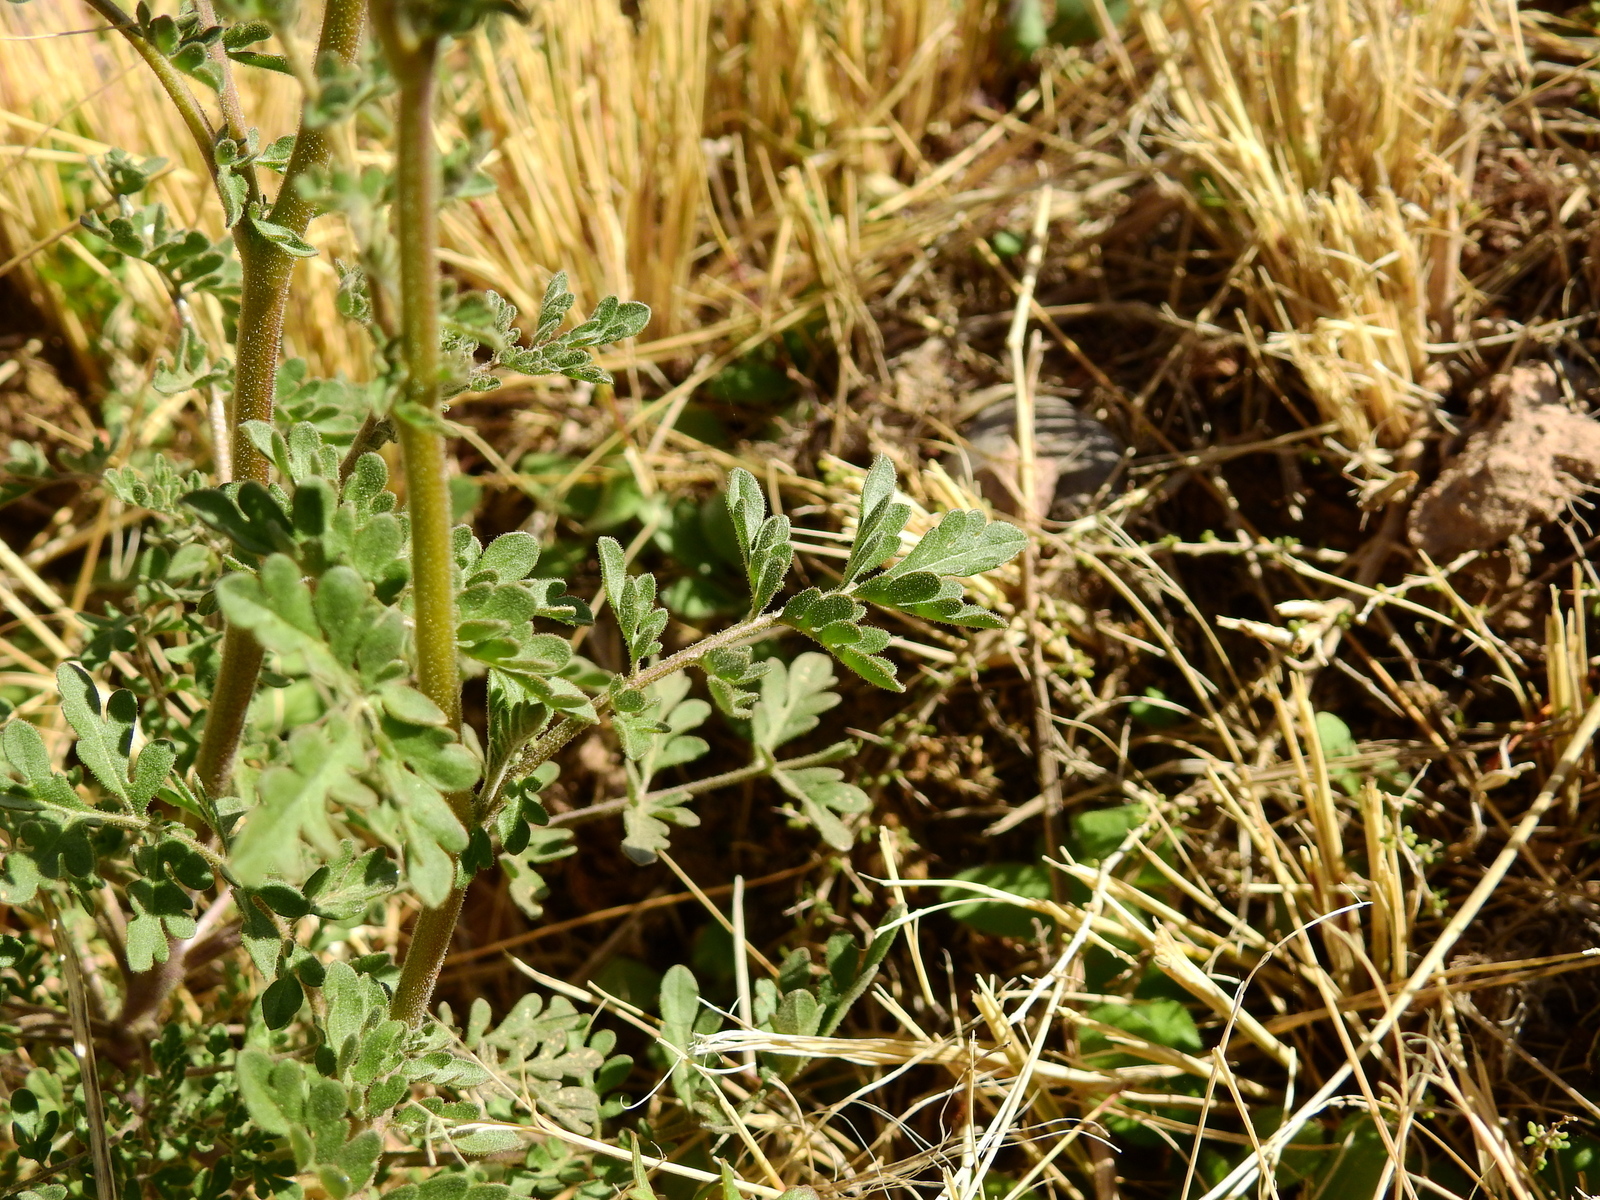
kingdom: Plantae
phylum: Tracheophyta
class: Magnoliopsida
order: Brassicales
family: Brassicaceae
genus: Descurainia
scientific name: Descurainia erodiifolia
